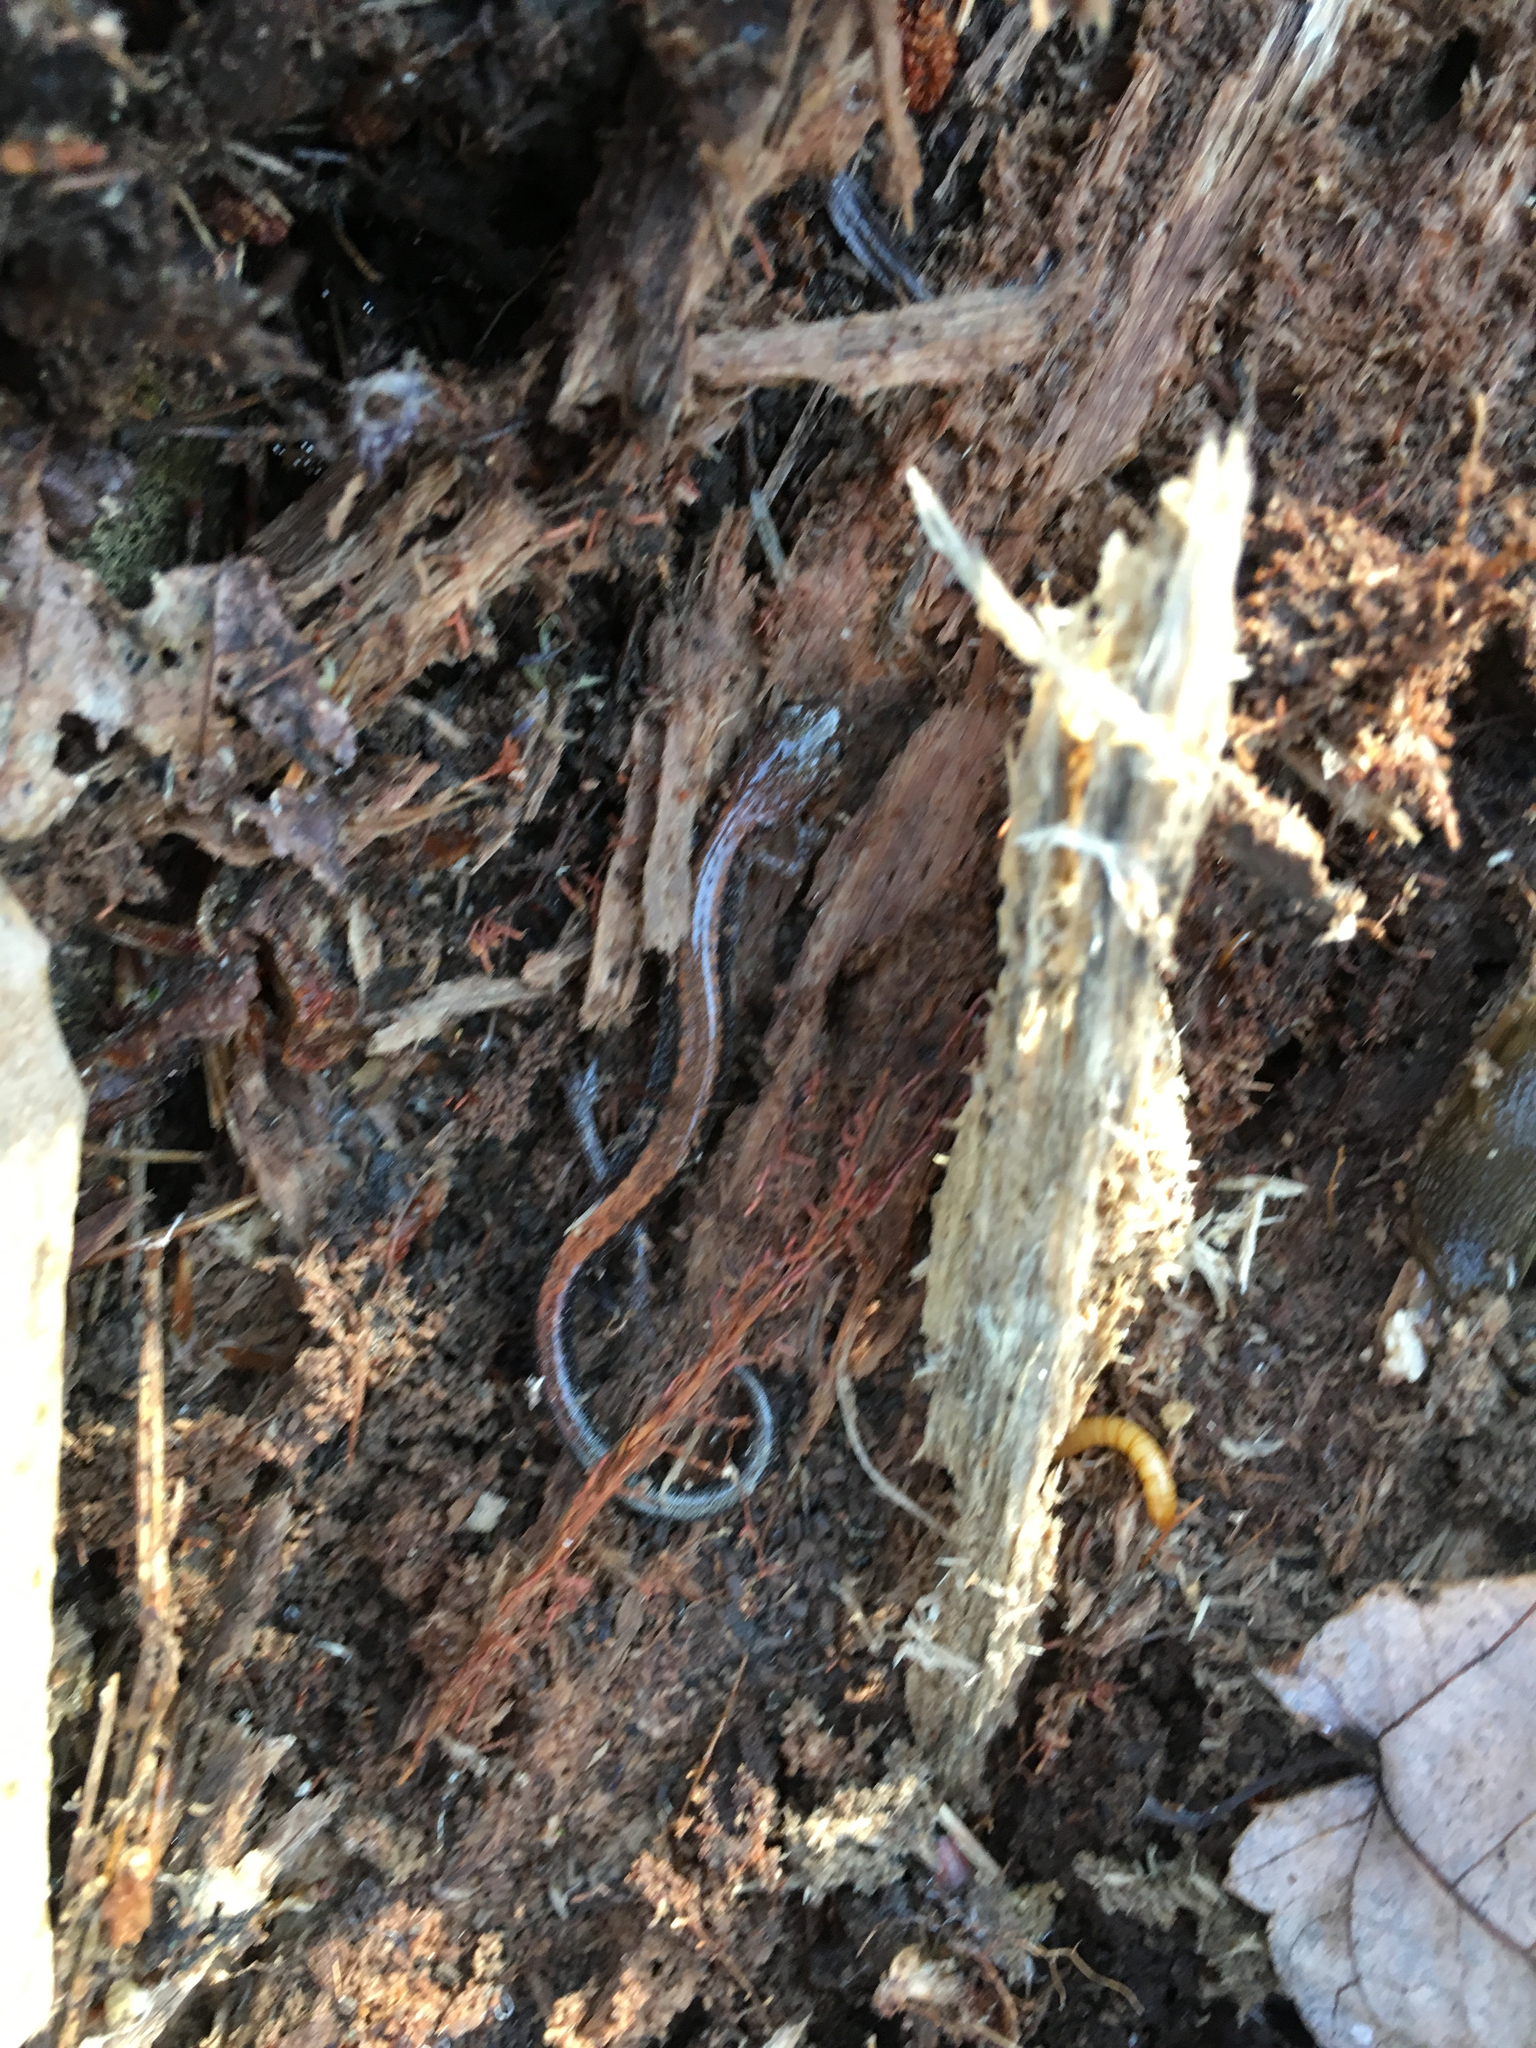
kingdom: Animalia
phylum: Chordata
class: Amphibia
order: Caudata
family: Plethodontidae
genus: Plethodon
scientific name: Plethodon cinereus
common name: Redback salamander
